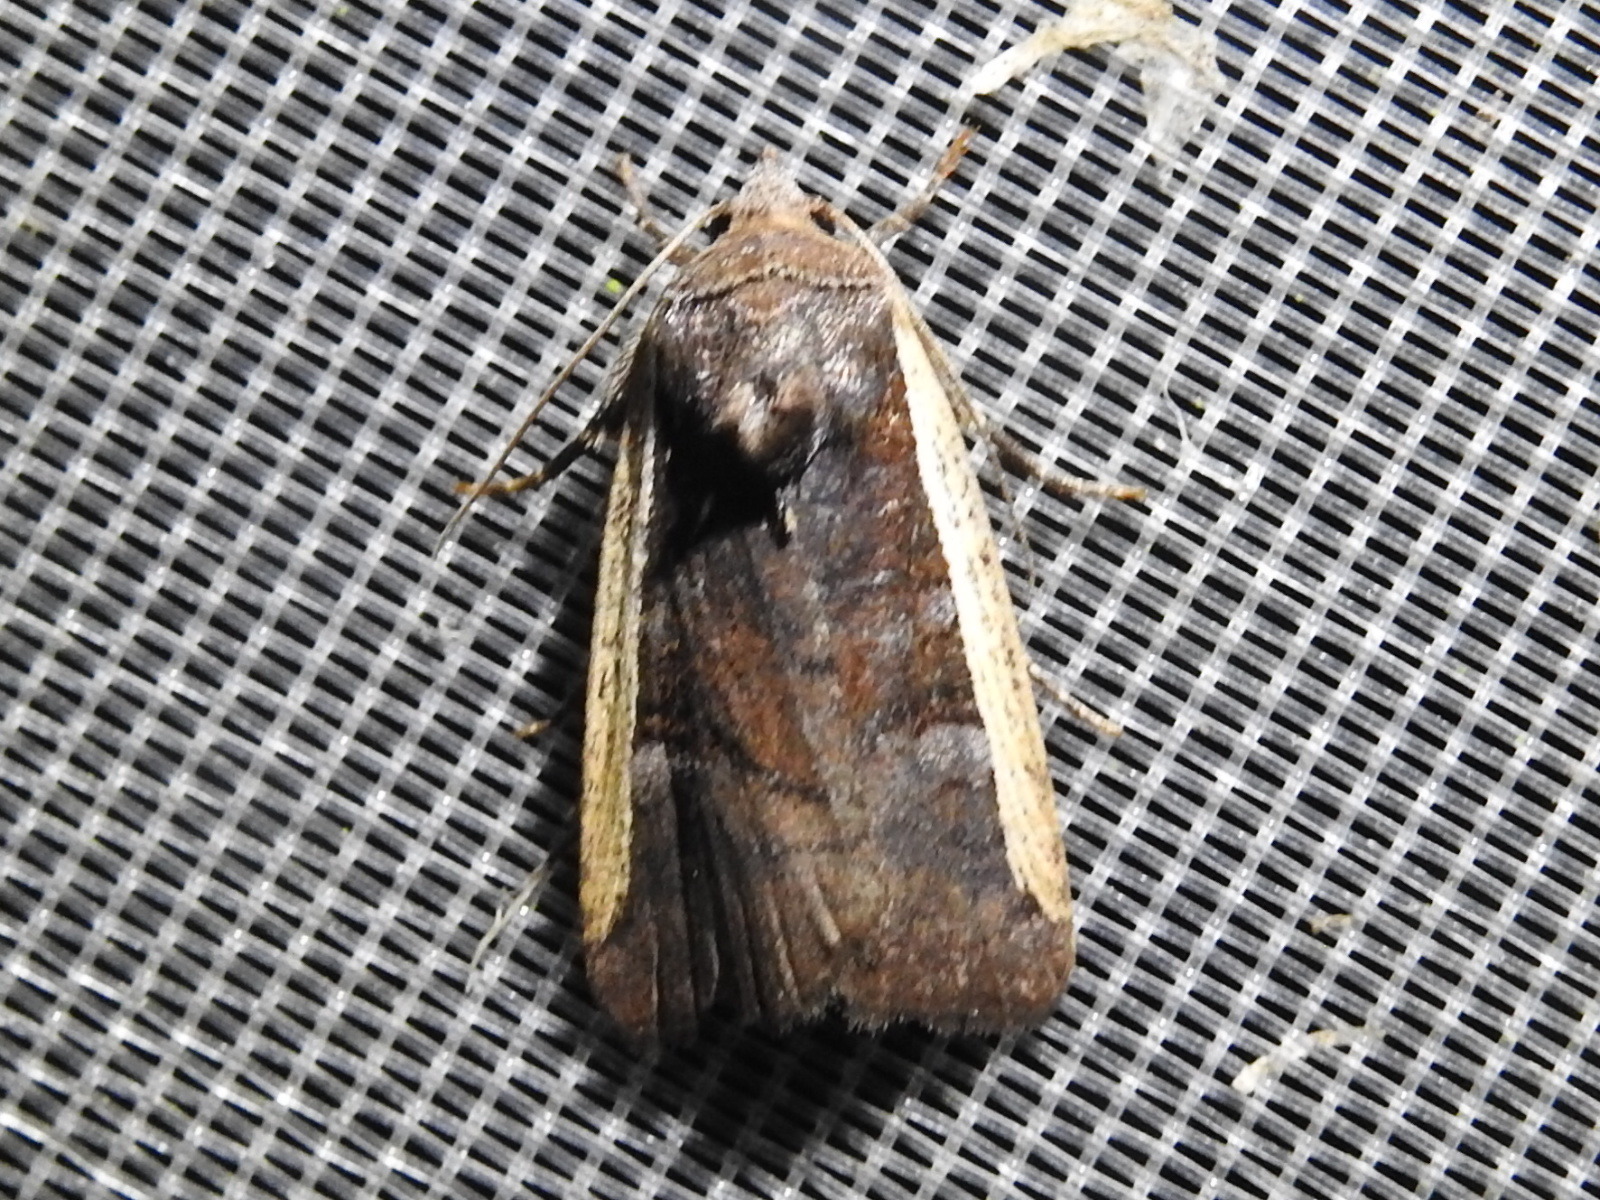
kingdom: Animalia
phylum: Arthropoda
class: Insecta
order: Lepidoptera
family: Noctuidae
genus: Elaphria
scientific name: Elaphria jalapensis
